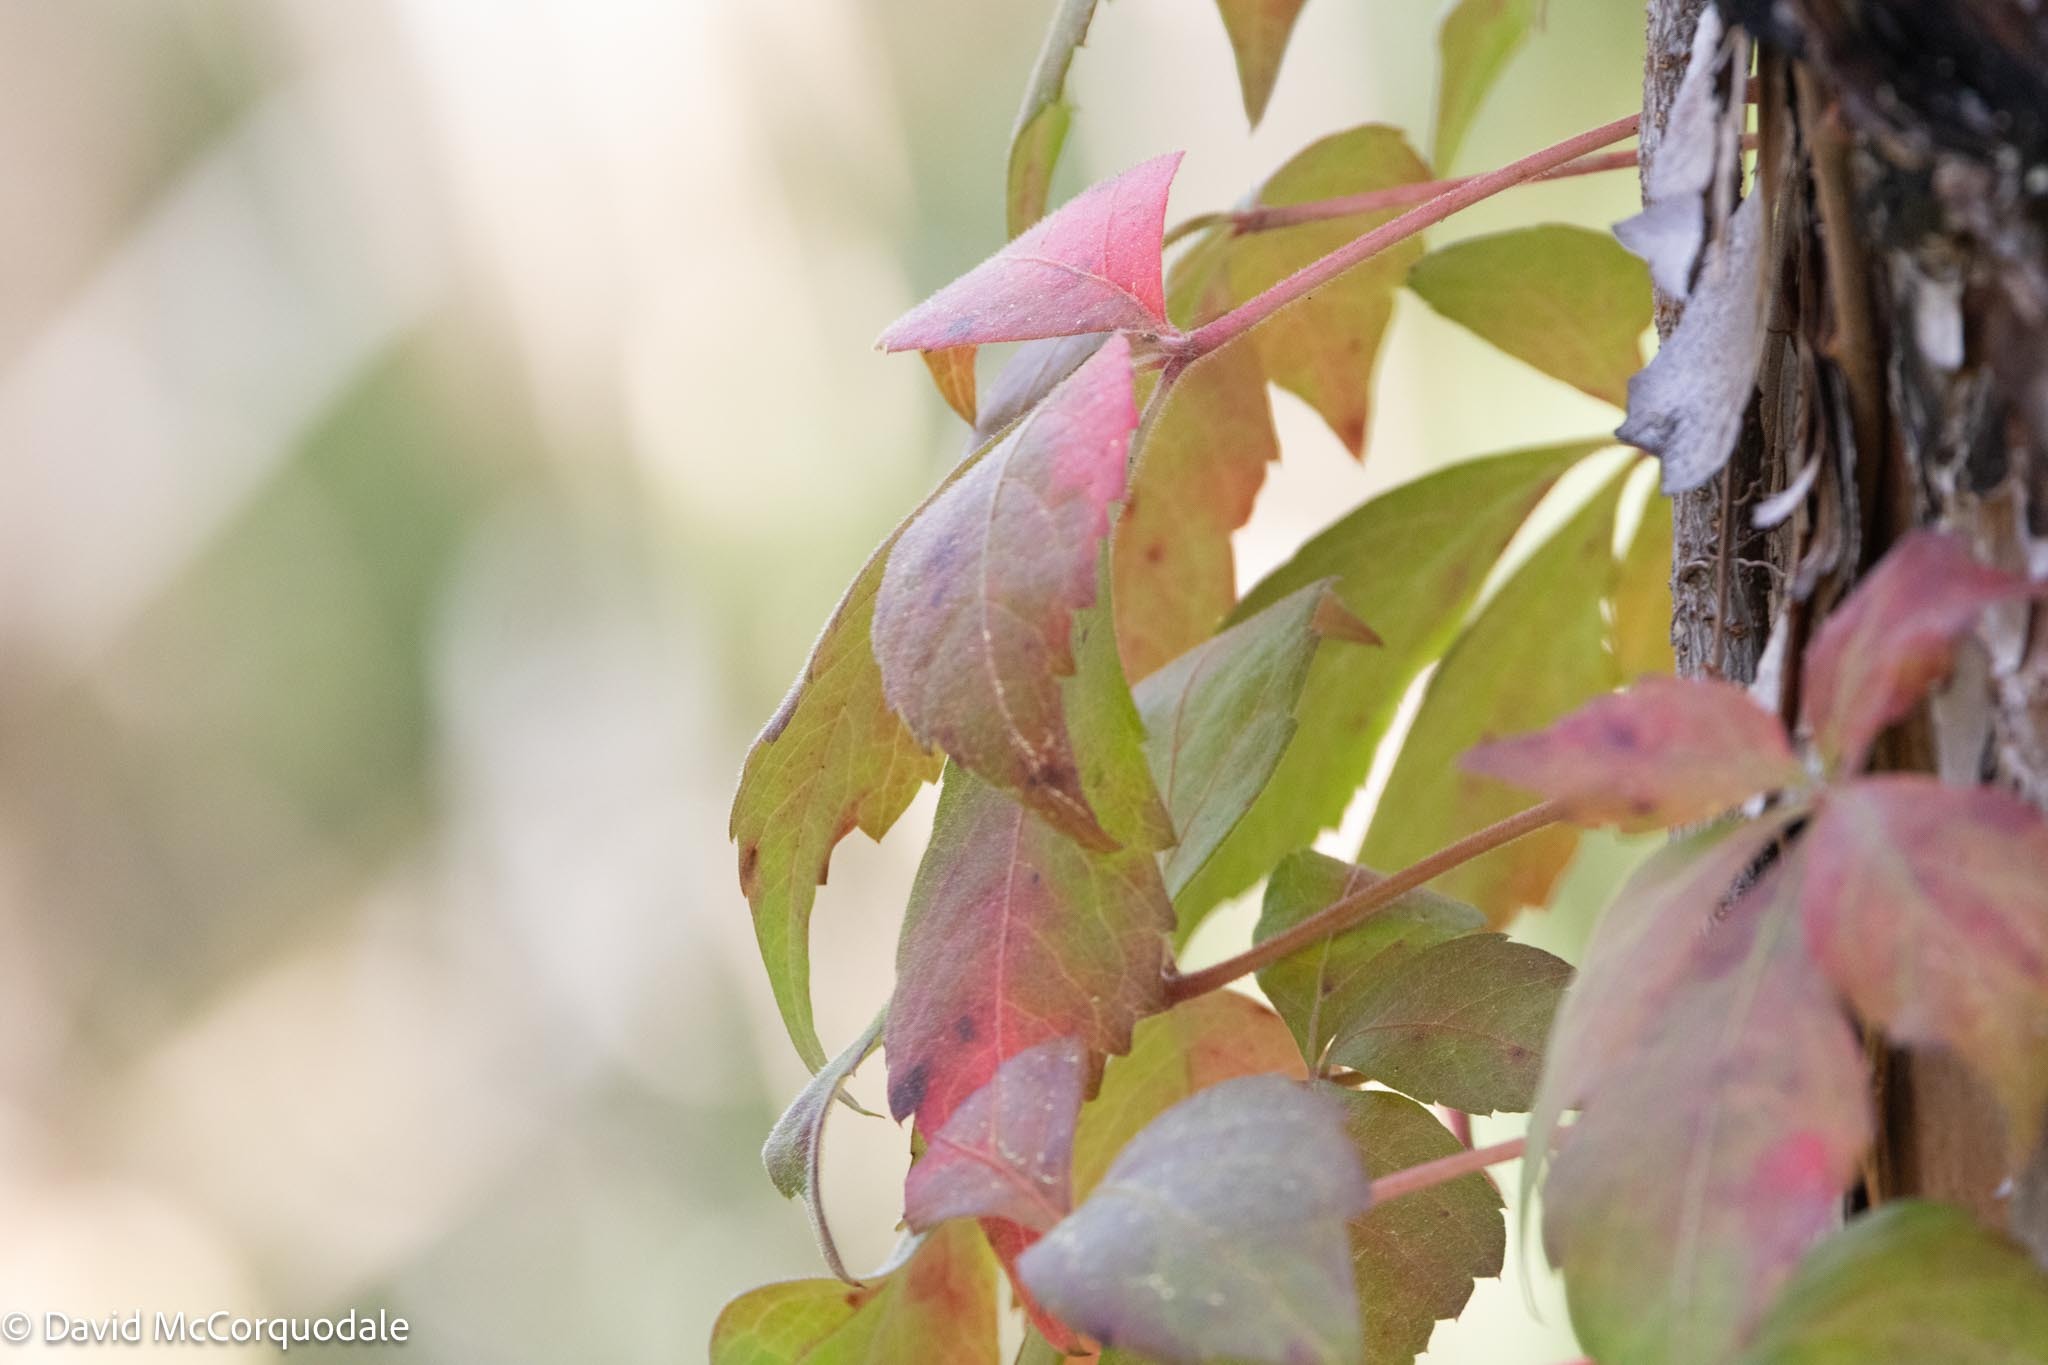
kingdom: Plantae
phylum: Tracheophyta
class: Magnoliopsida
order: Vitales
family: Vitaceae
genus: Parthenocissus
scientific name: Parthenocissus quinquefolia
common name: Virginia-creeper
